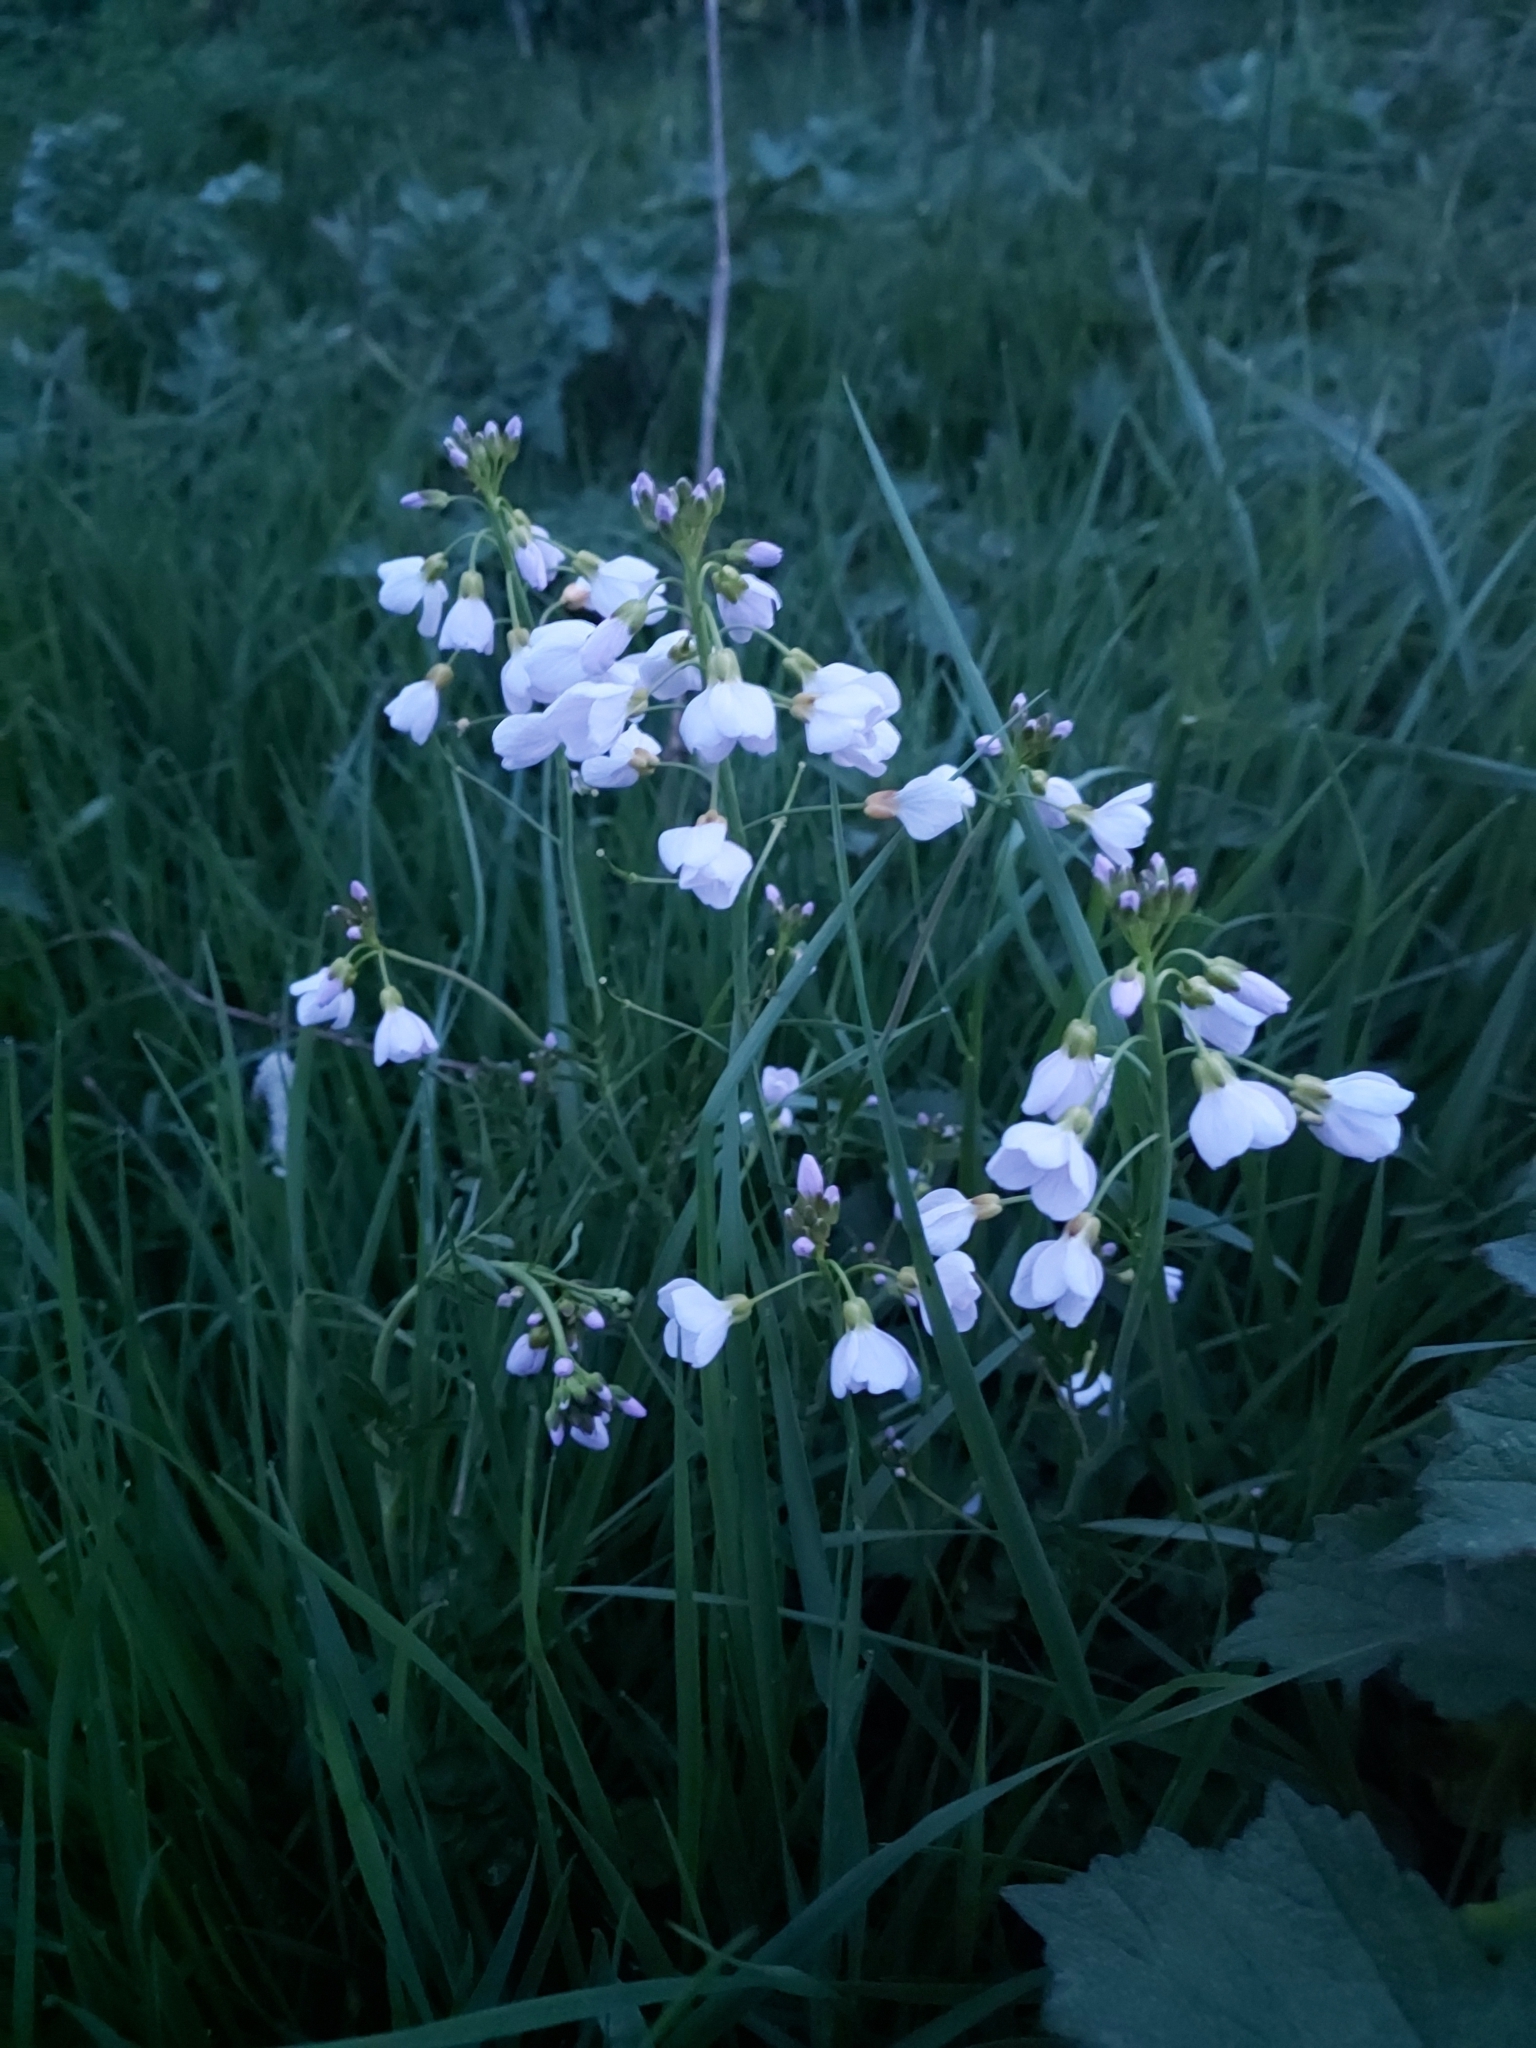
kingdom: Plantae
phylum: Tracheophyta
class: Magnoliopsida
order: Brassicales
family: Brassicaceae
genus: Cardamine
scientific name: Cardamine pratensis
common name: Cuckoo flower
